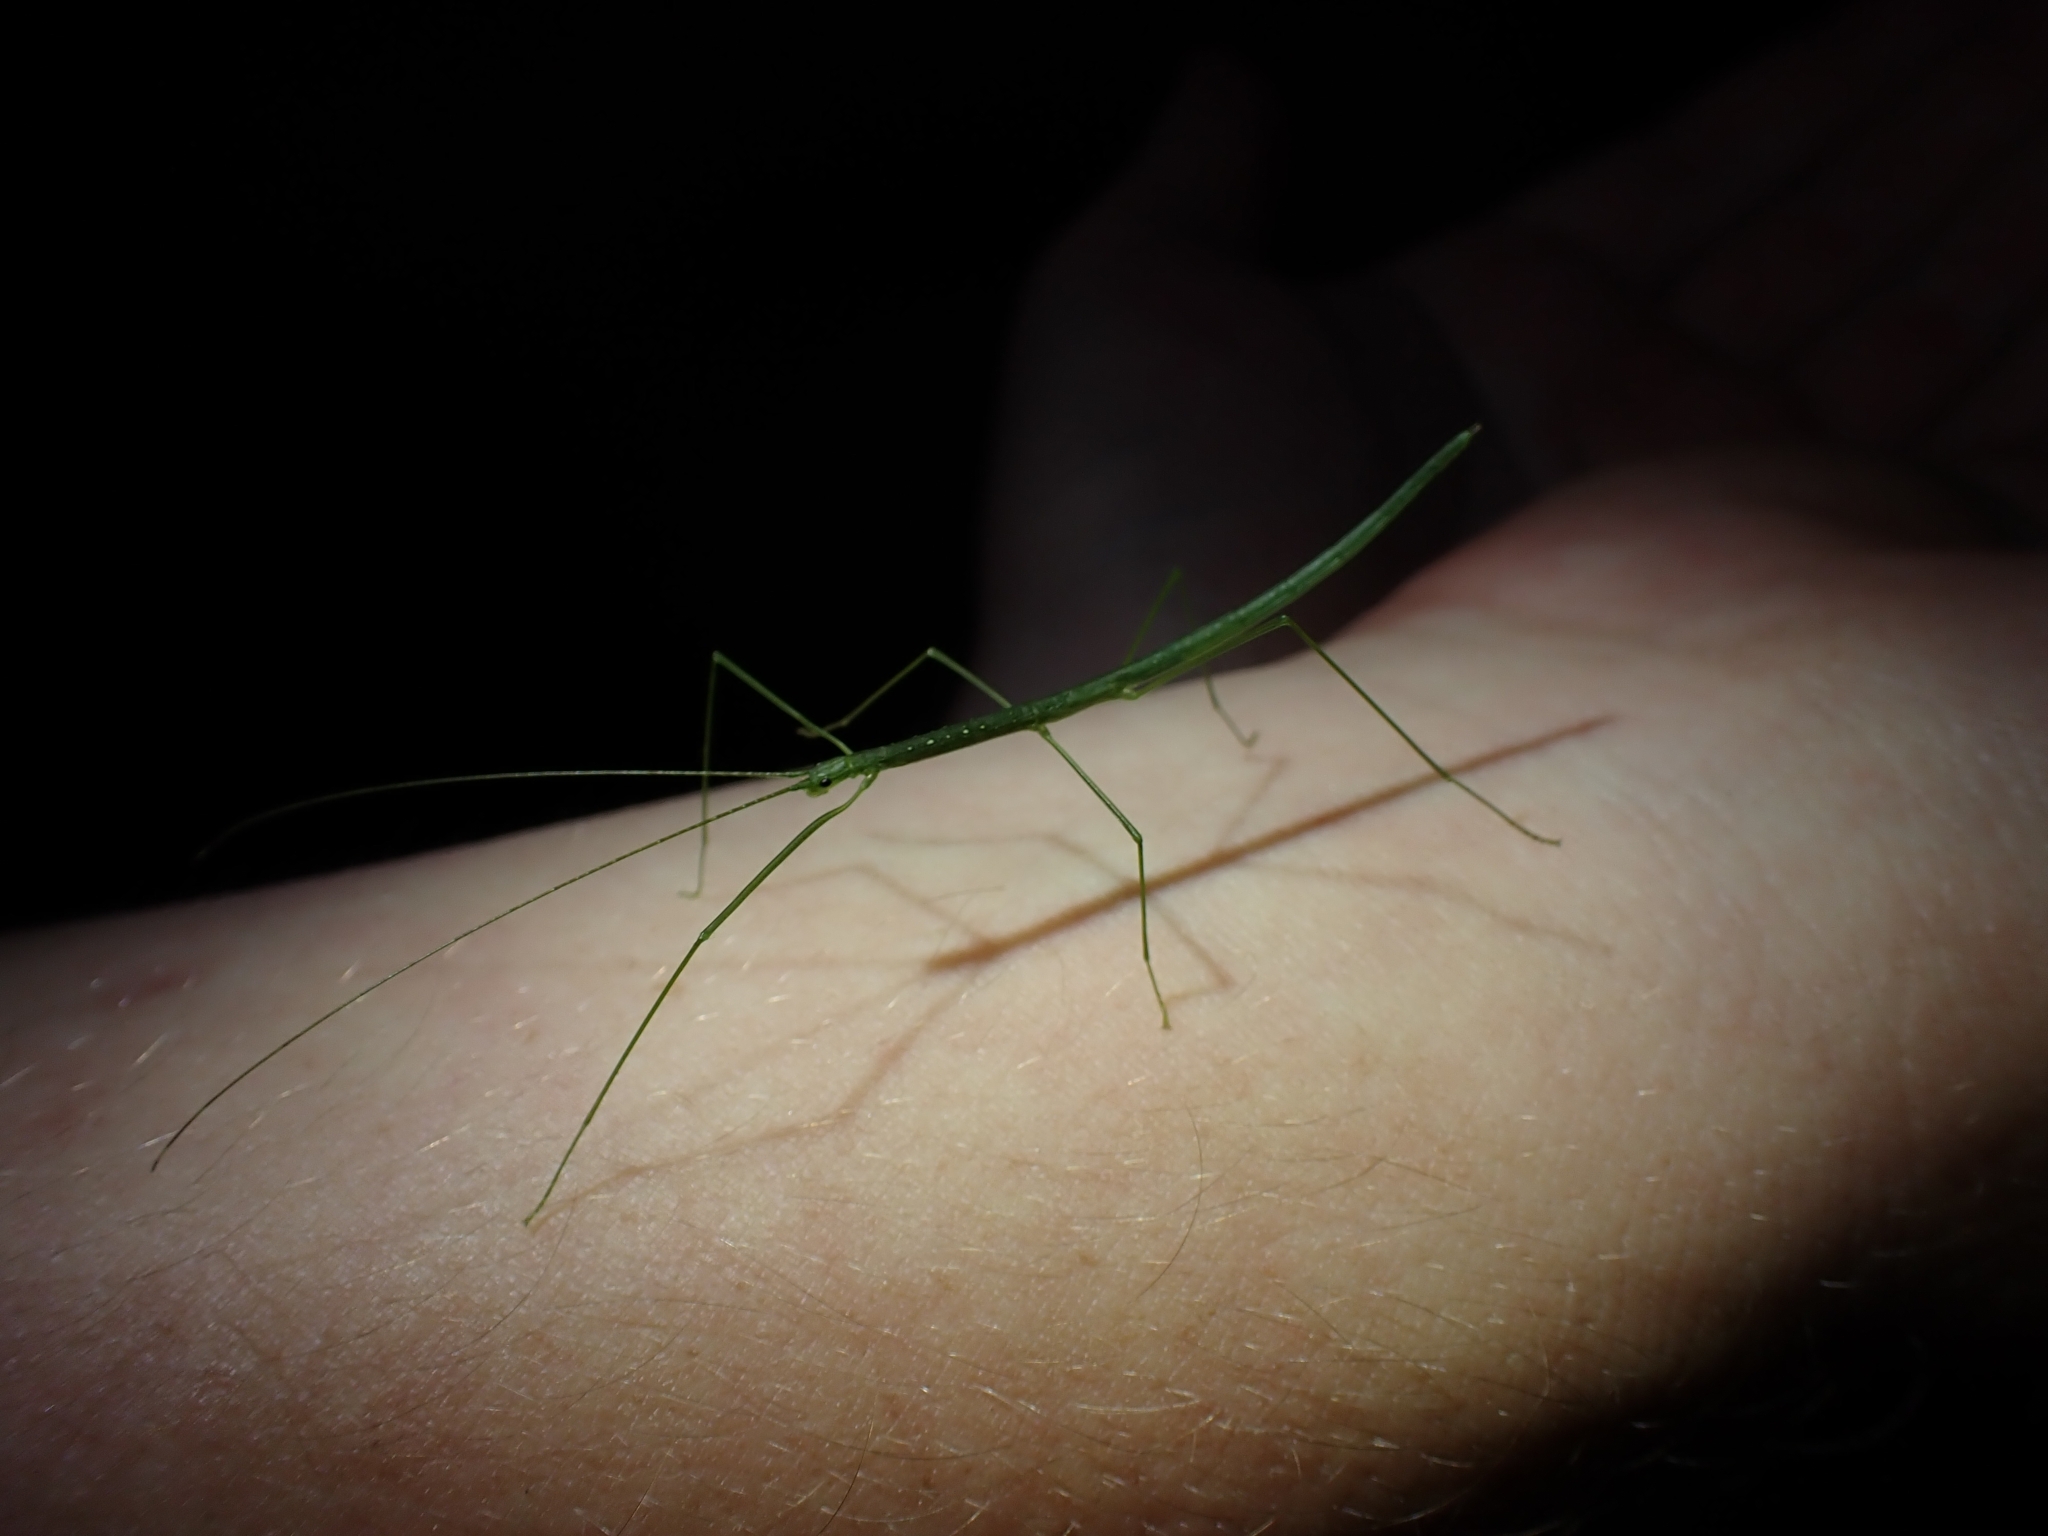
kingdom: Animalia
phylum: Arthropoda
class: Insecta
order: Phasmida
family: Lonchodidae
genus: Sipyloidea
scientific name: Sipyloidea rentzi
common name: Rentz's sipyloidea stick-insect
